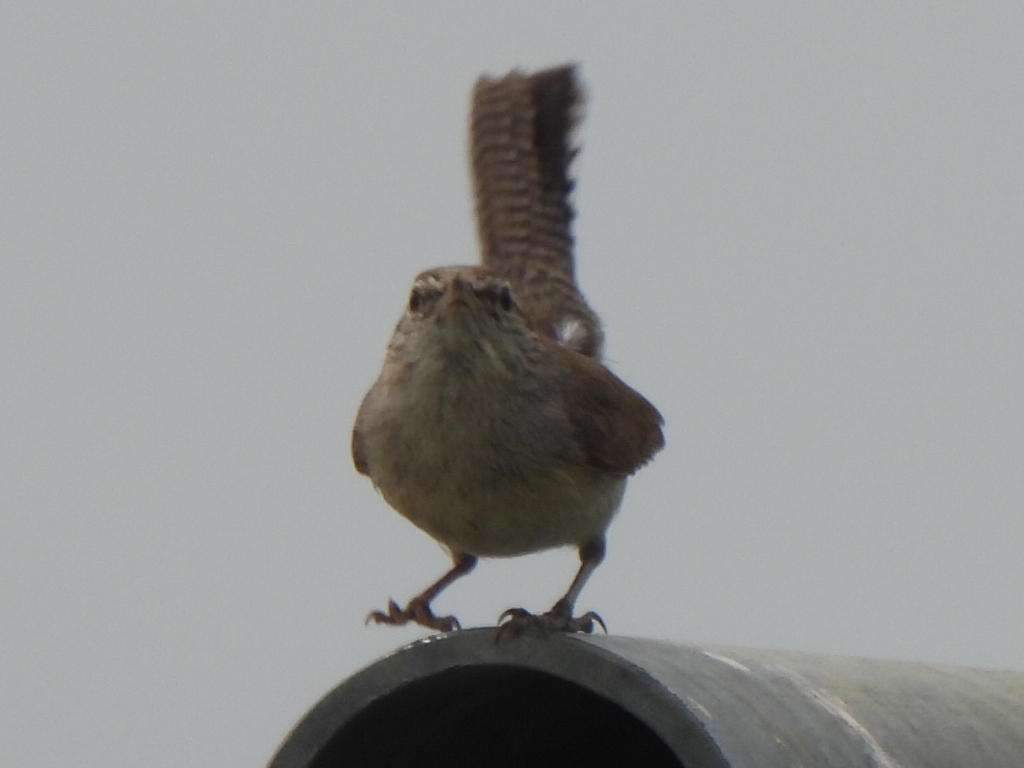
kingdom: Animalia
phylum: Chordata
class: Aves
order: Passeriformes
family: Troglodytidae
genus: Thryomanes
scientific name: Thryomanes bewickii
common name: Bewick's wren
